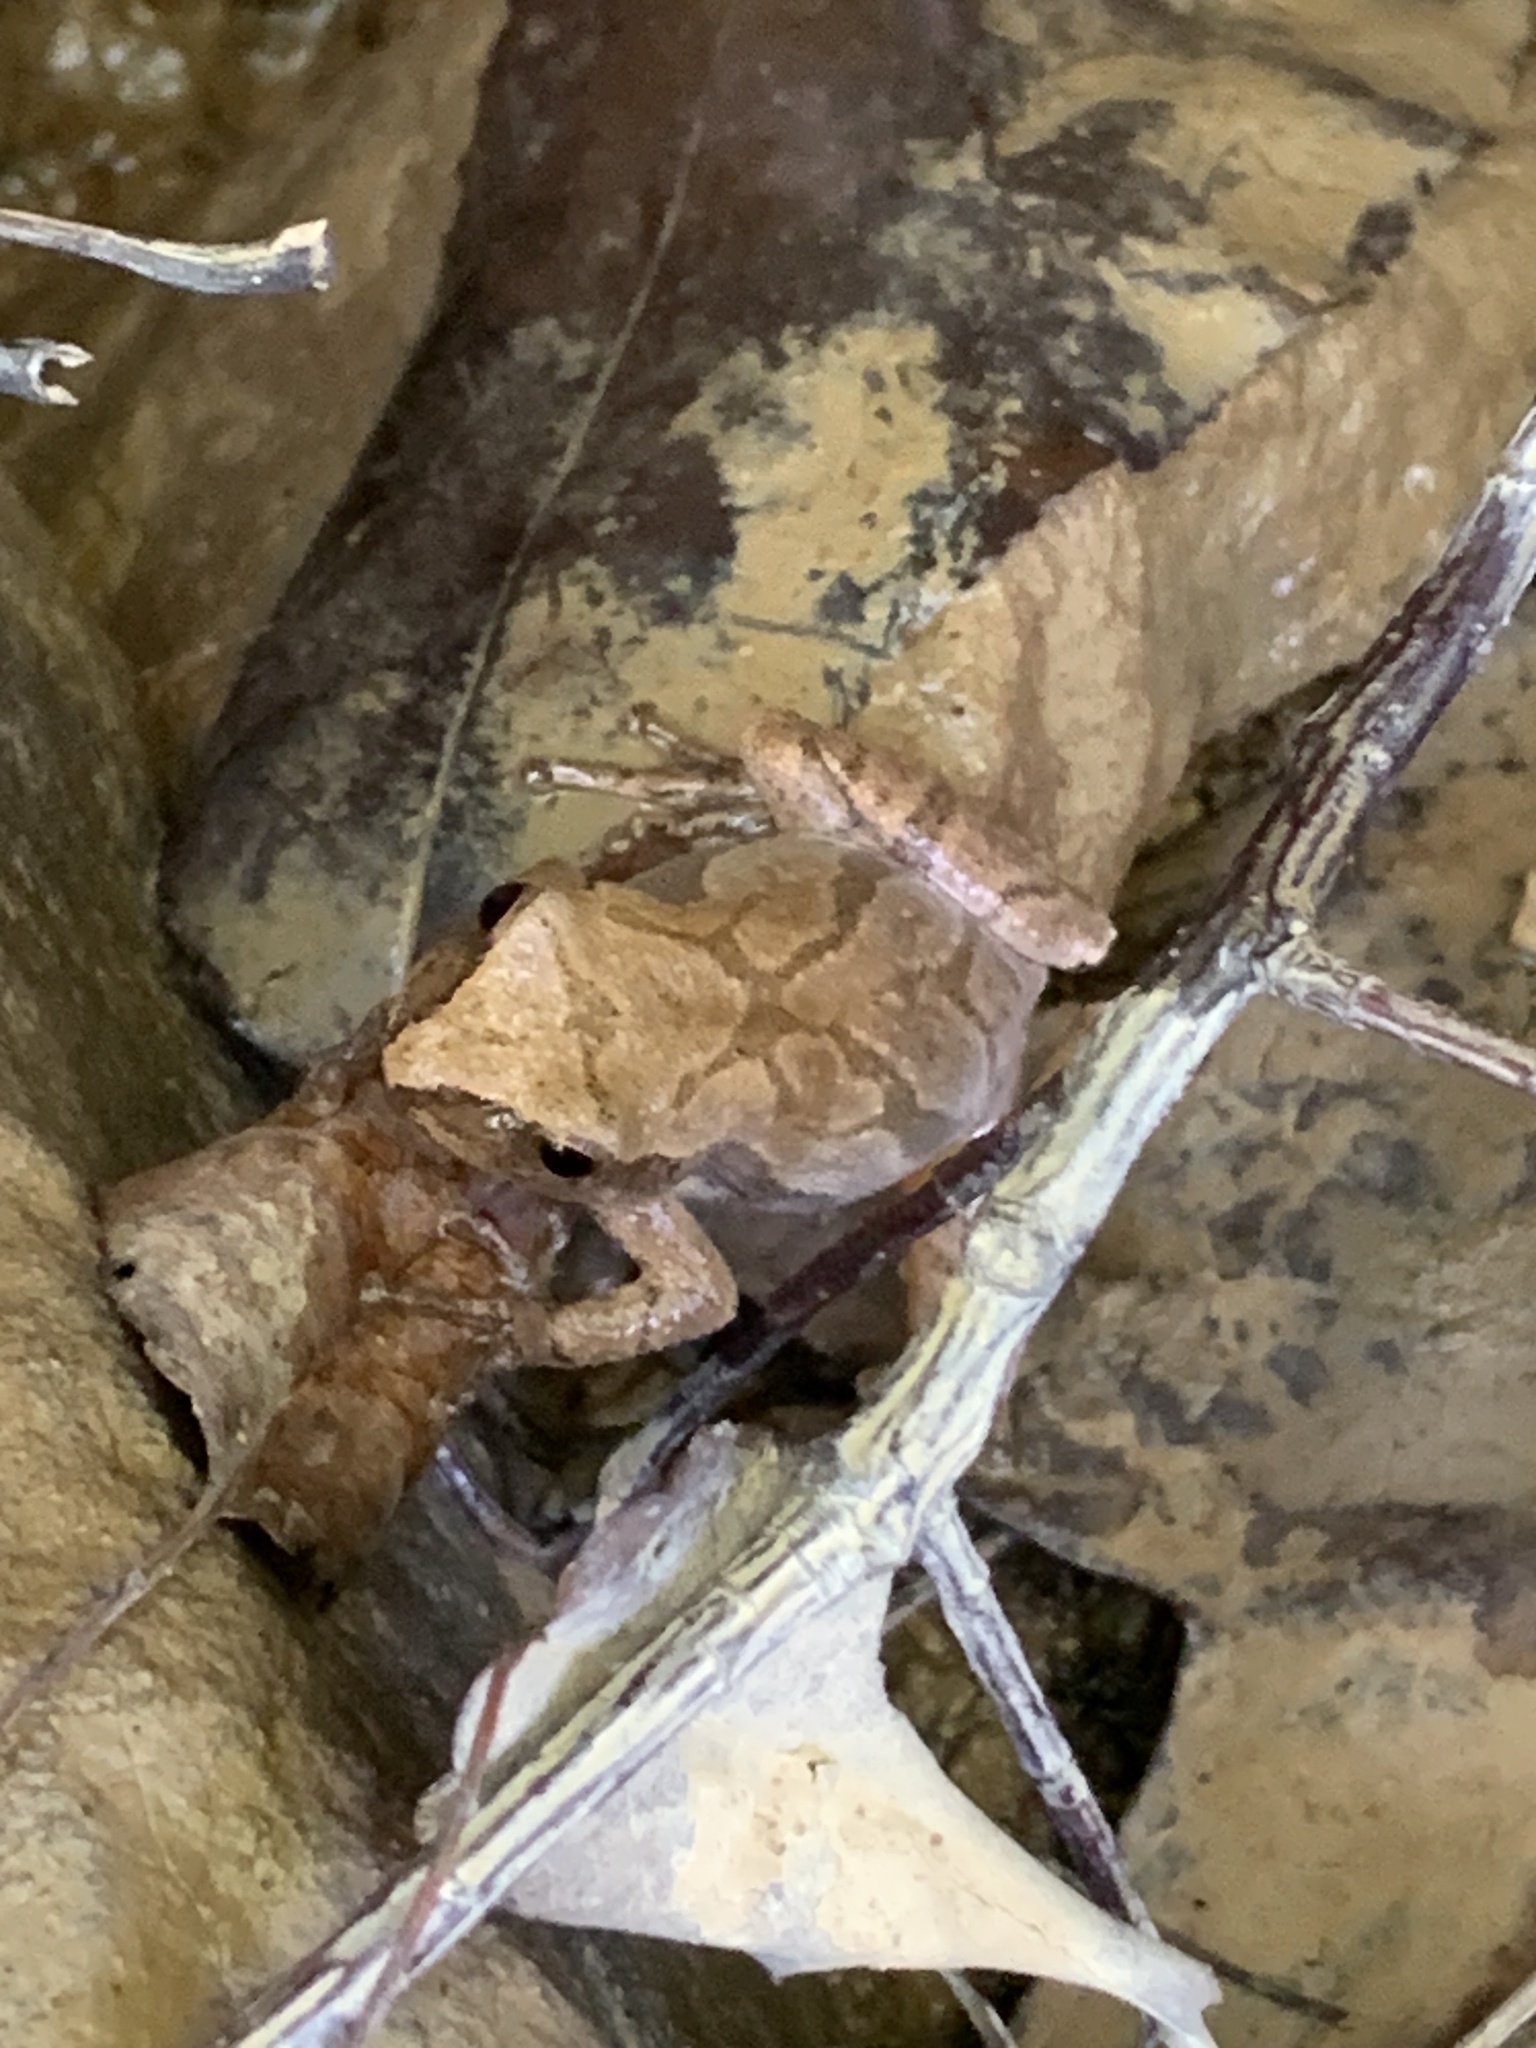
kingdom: Animalia
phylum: Chordata
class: Amphibia
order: Anura
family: Hylidae
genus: Pseudacris
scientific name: Pseudacris crucifer
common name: Spring peeper
